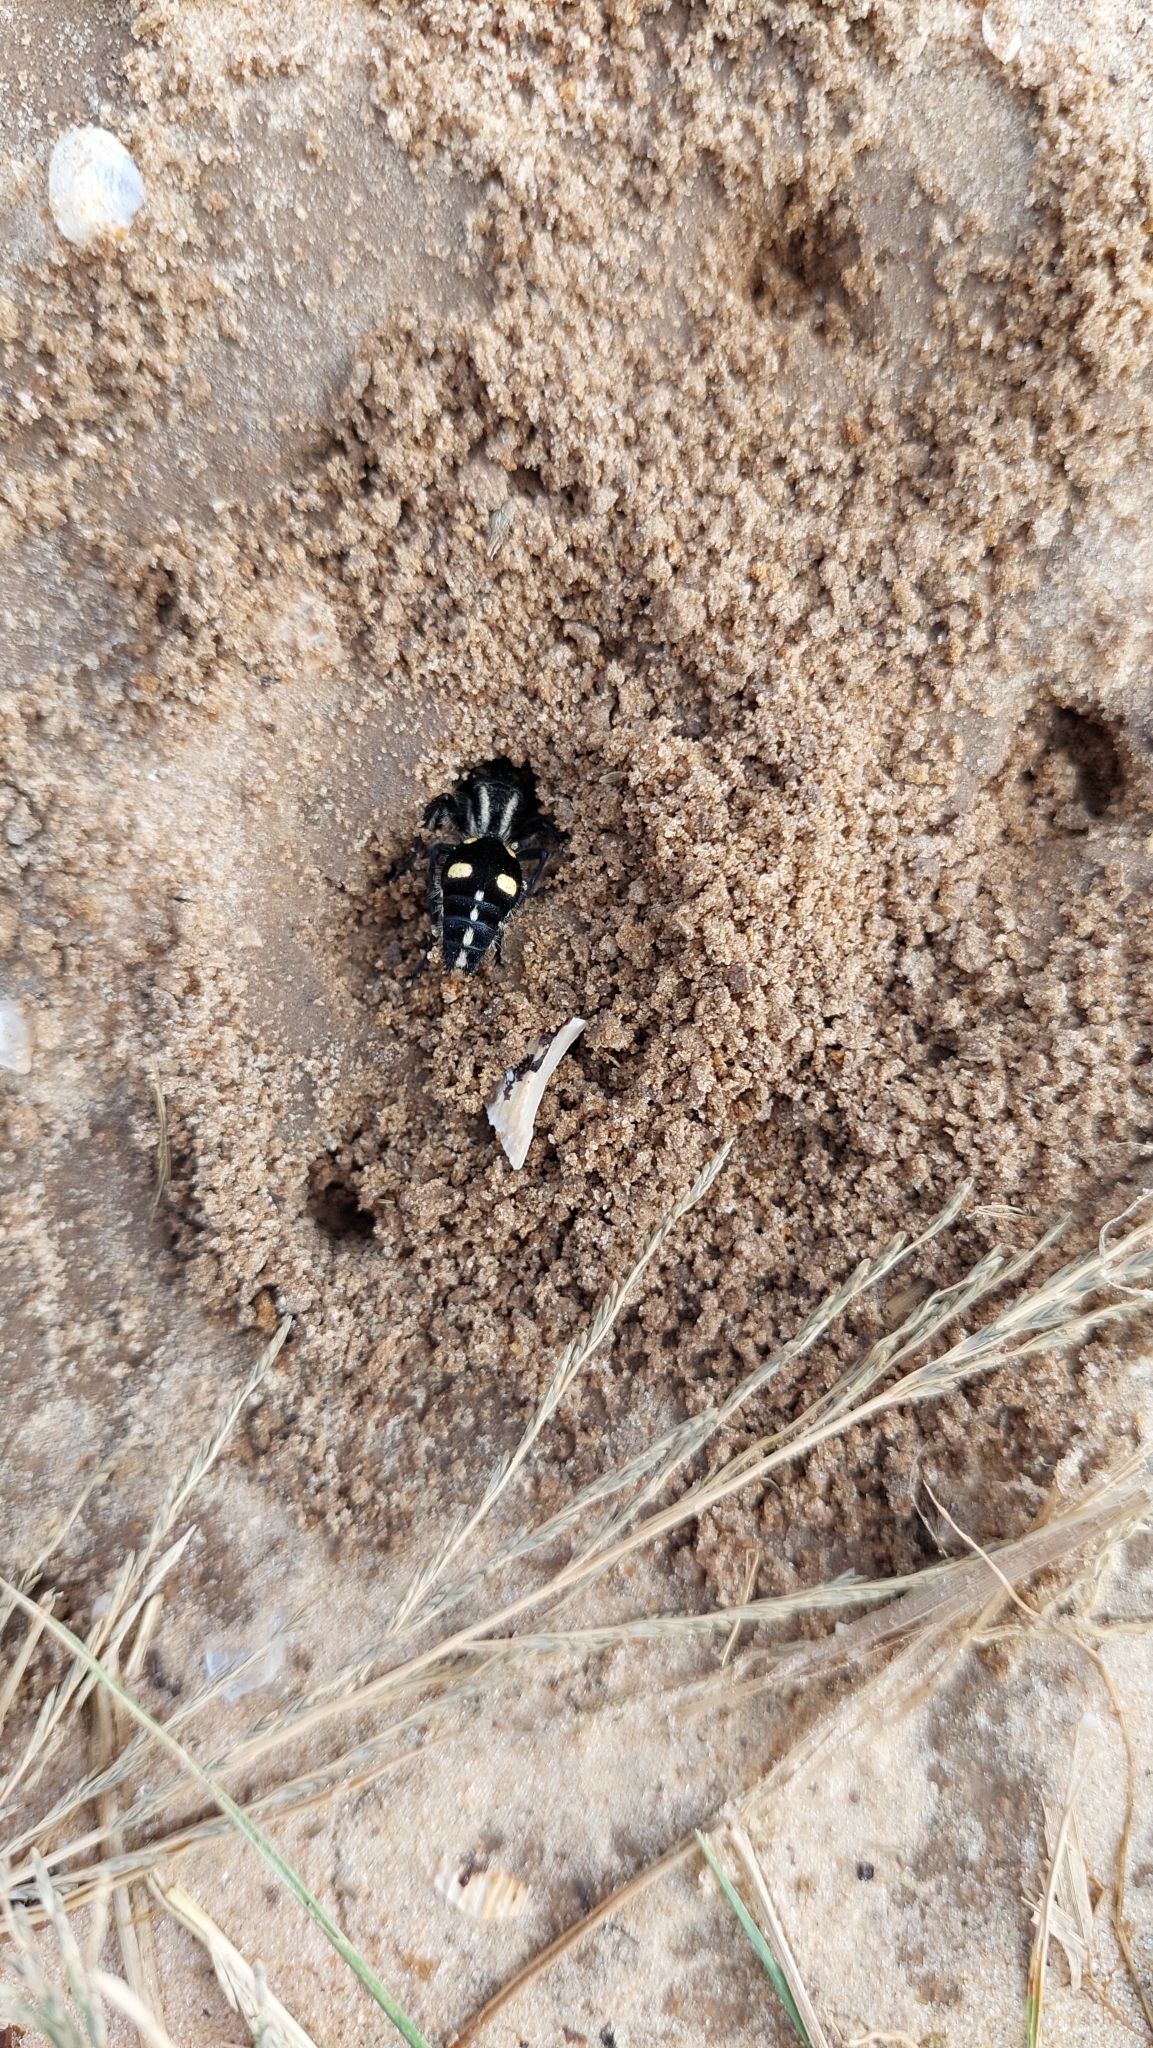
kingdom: Animalia
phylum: Arthropoda
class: Insecta
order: Hymenoptera
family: Mutillidae
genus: Traumatomutilla
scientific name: Traumatomutilla
